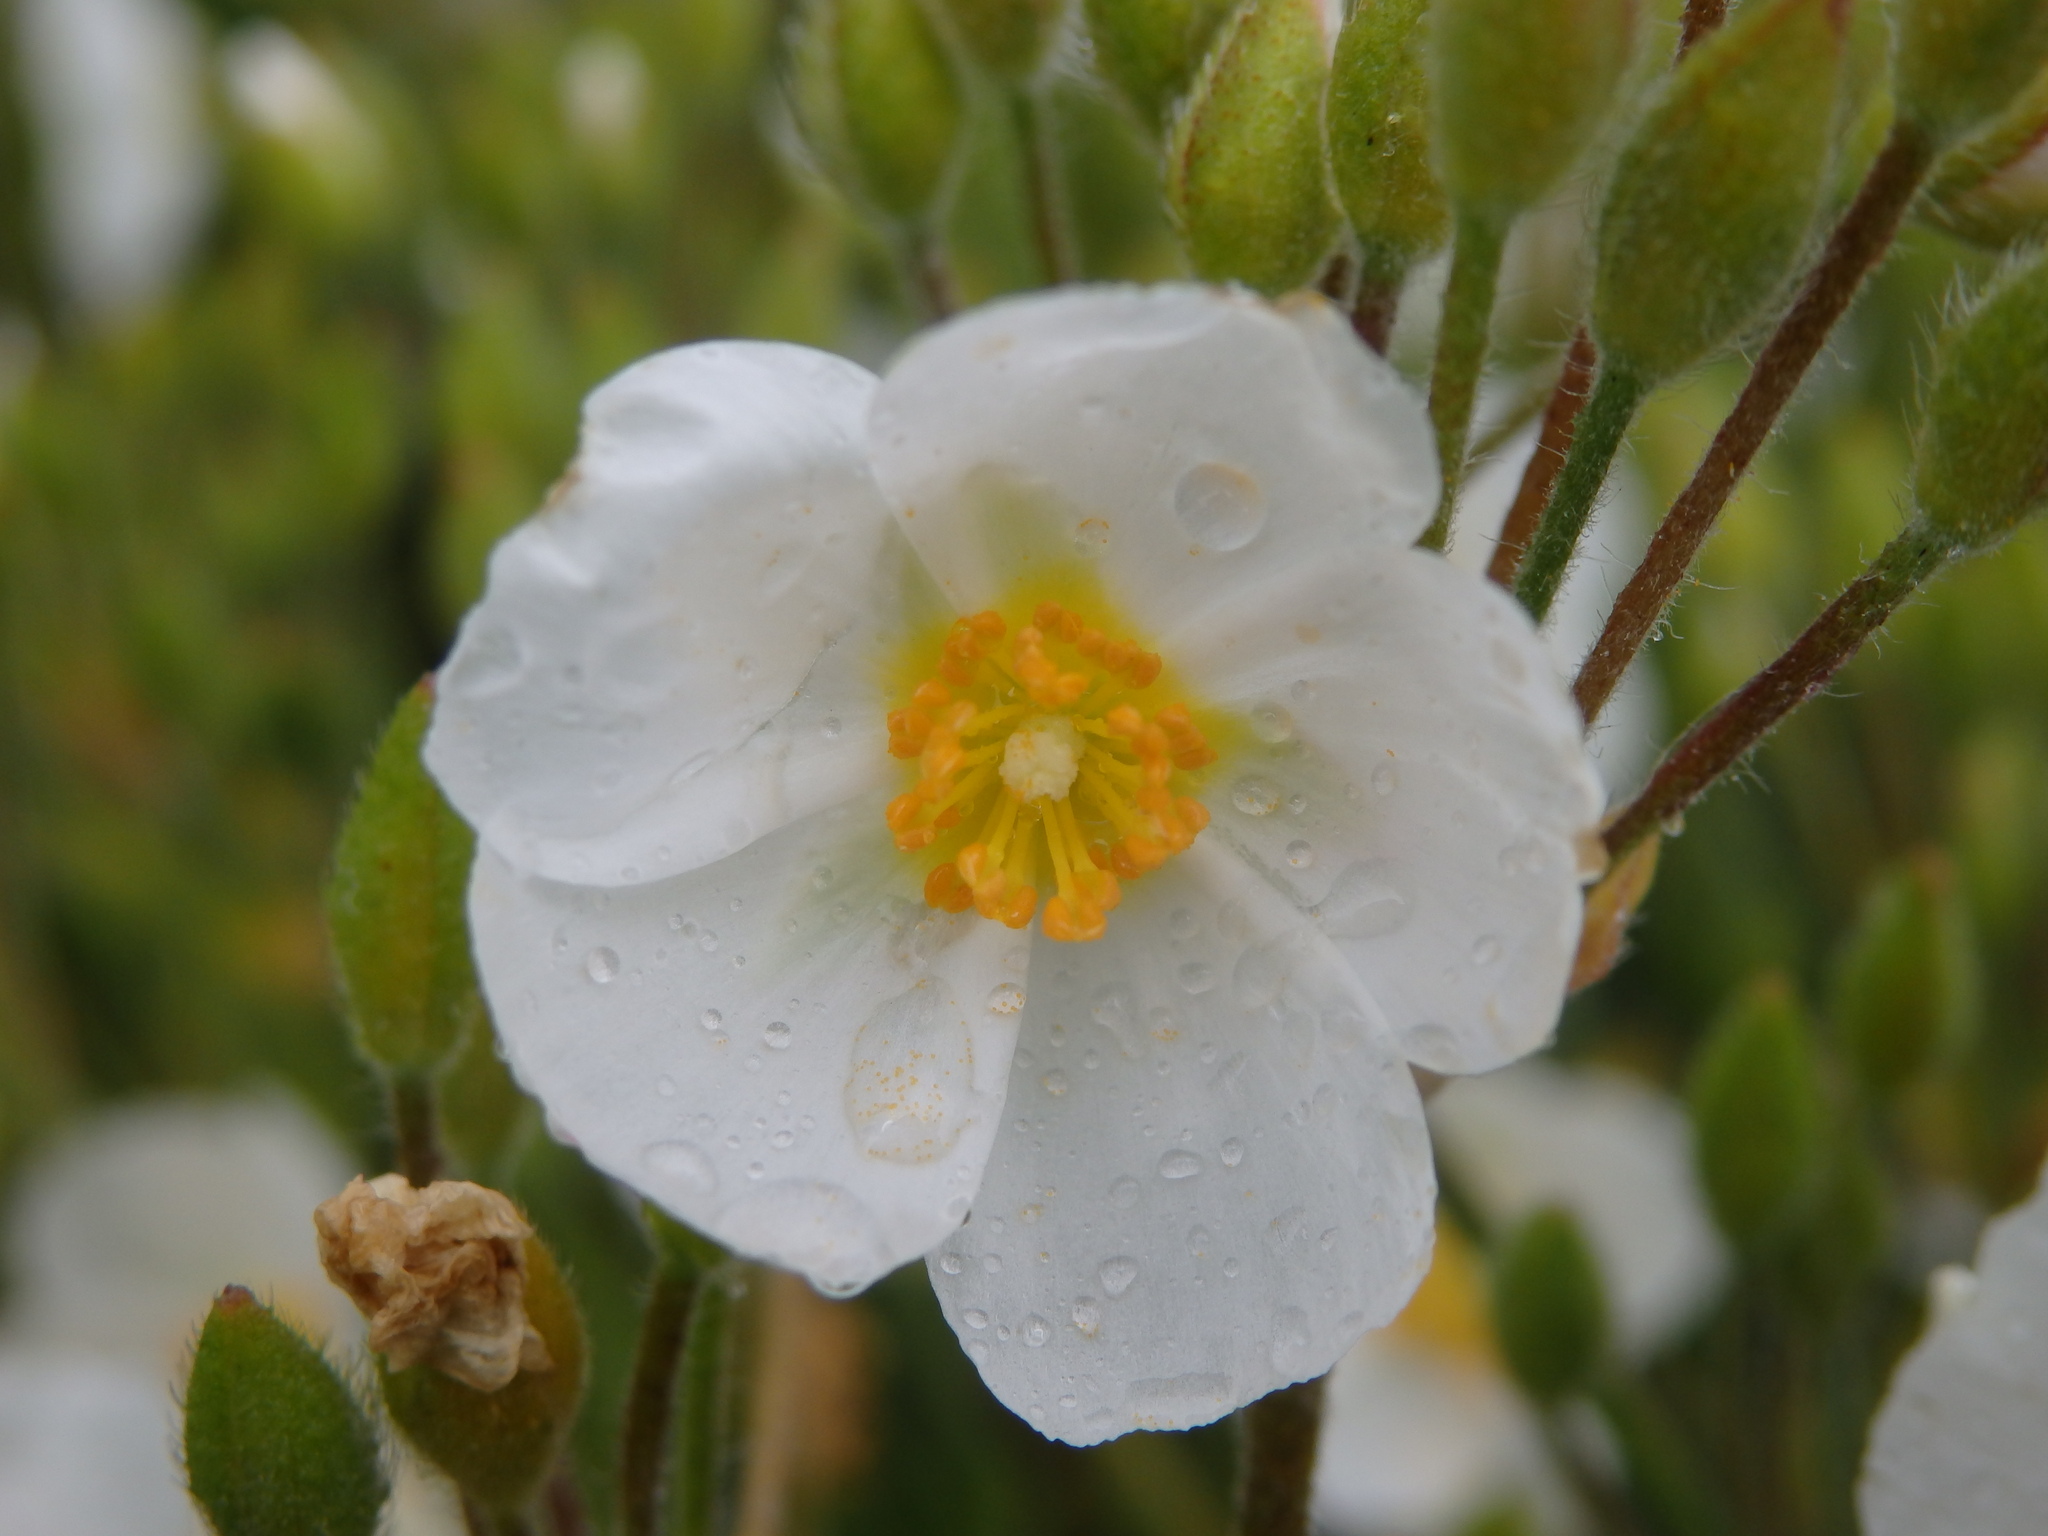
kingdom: Plantae
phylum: Tracheophyta
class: Magnoliopsida
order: Malvales
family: Cistaceae
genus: Halimium
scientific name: Halimium umbellatum
